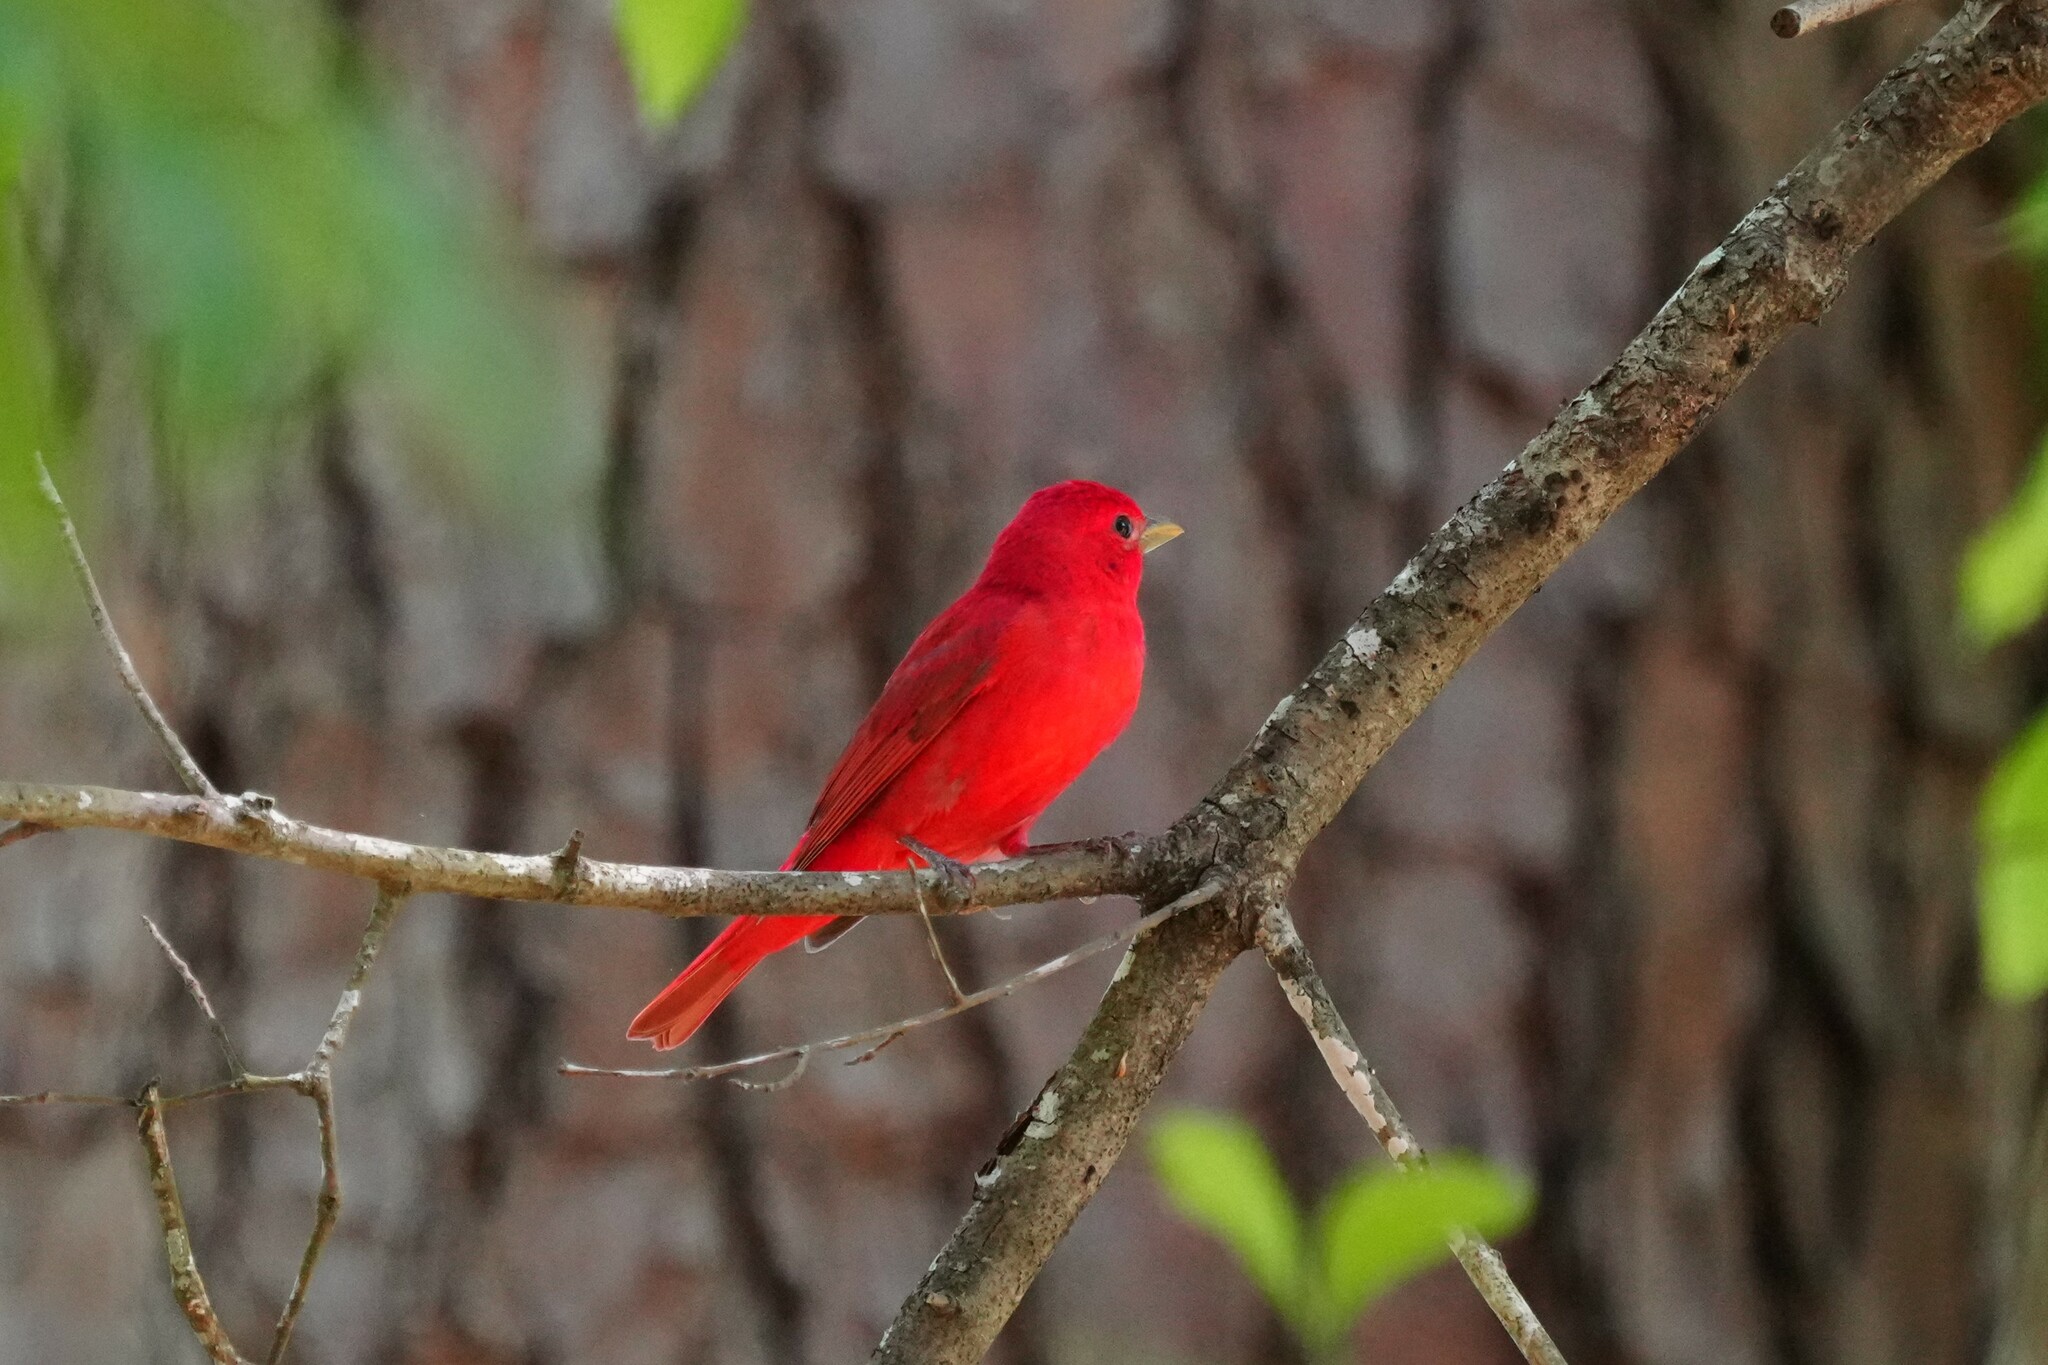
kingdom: Animalia
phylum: Chordata
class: Aves
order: Passeriformes
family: Cardinalidae
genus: Piranga
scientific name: Piranga rubra
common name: Summer tanager
